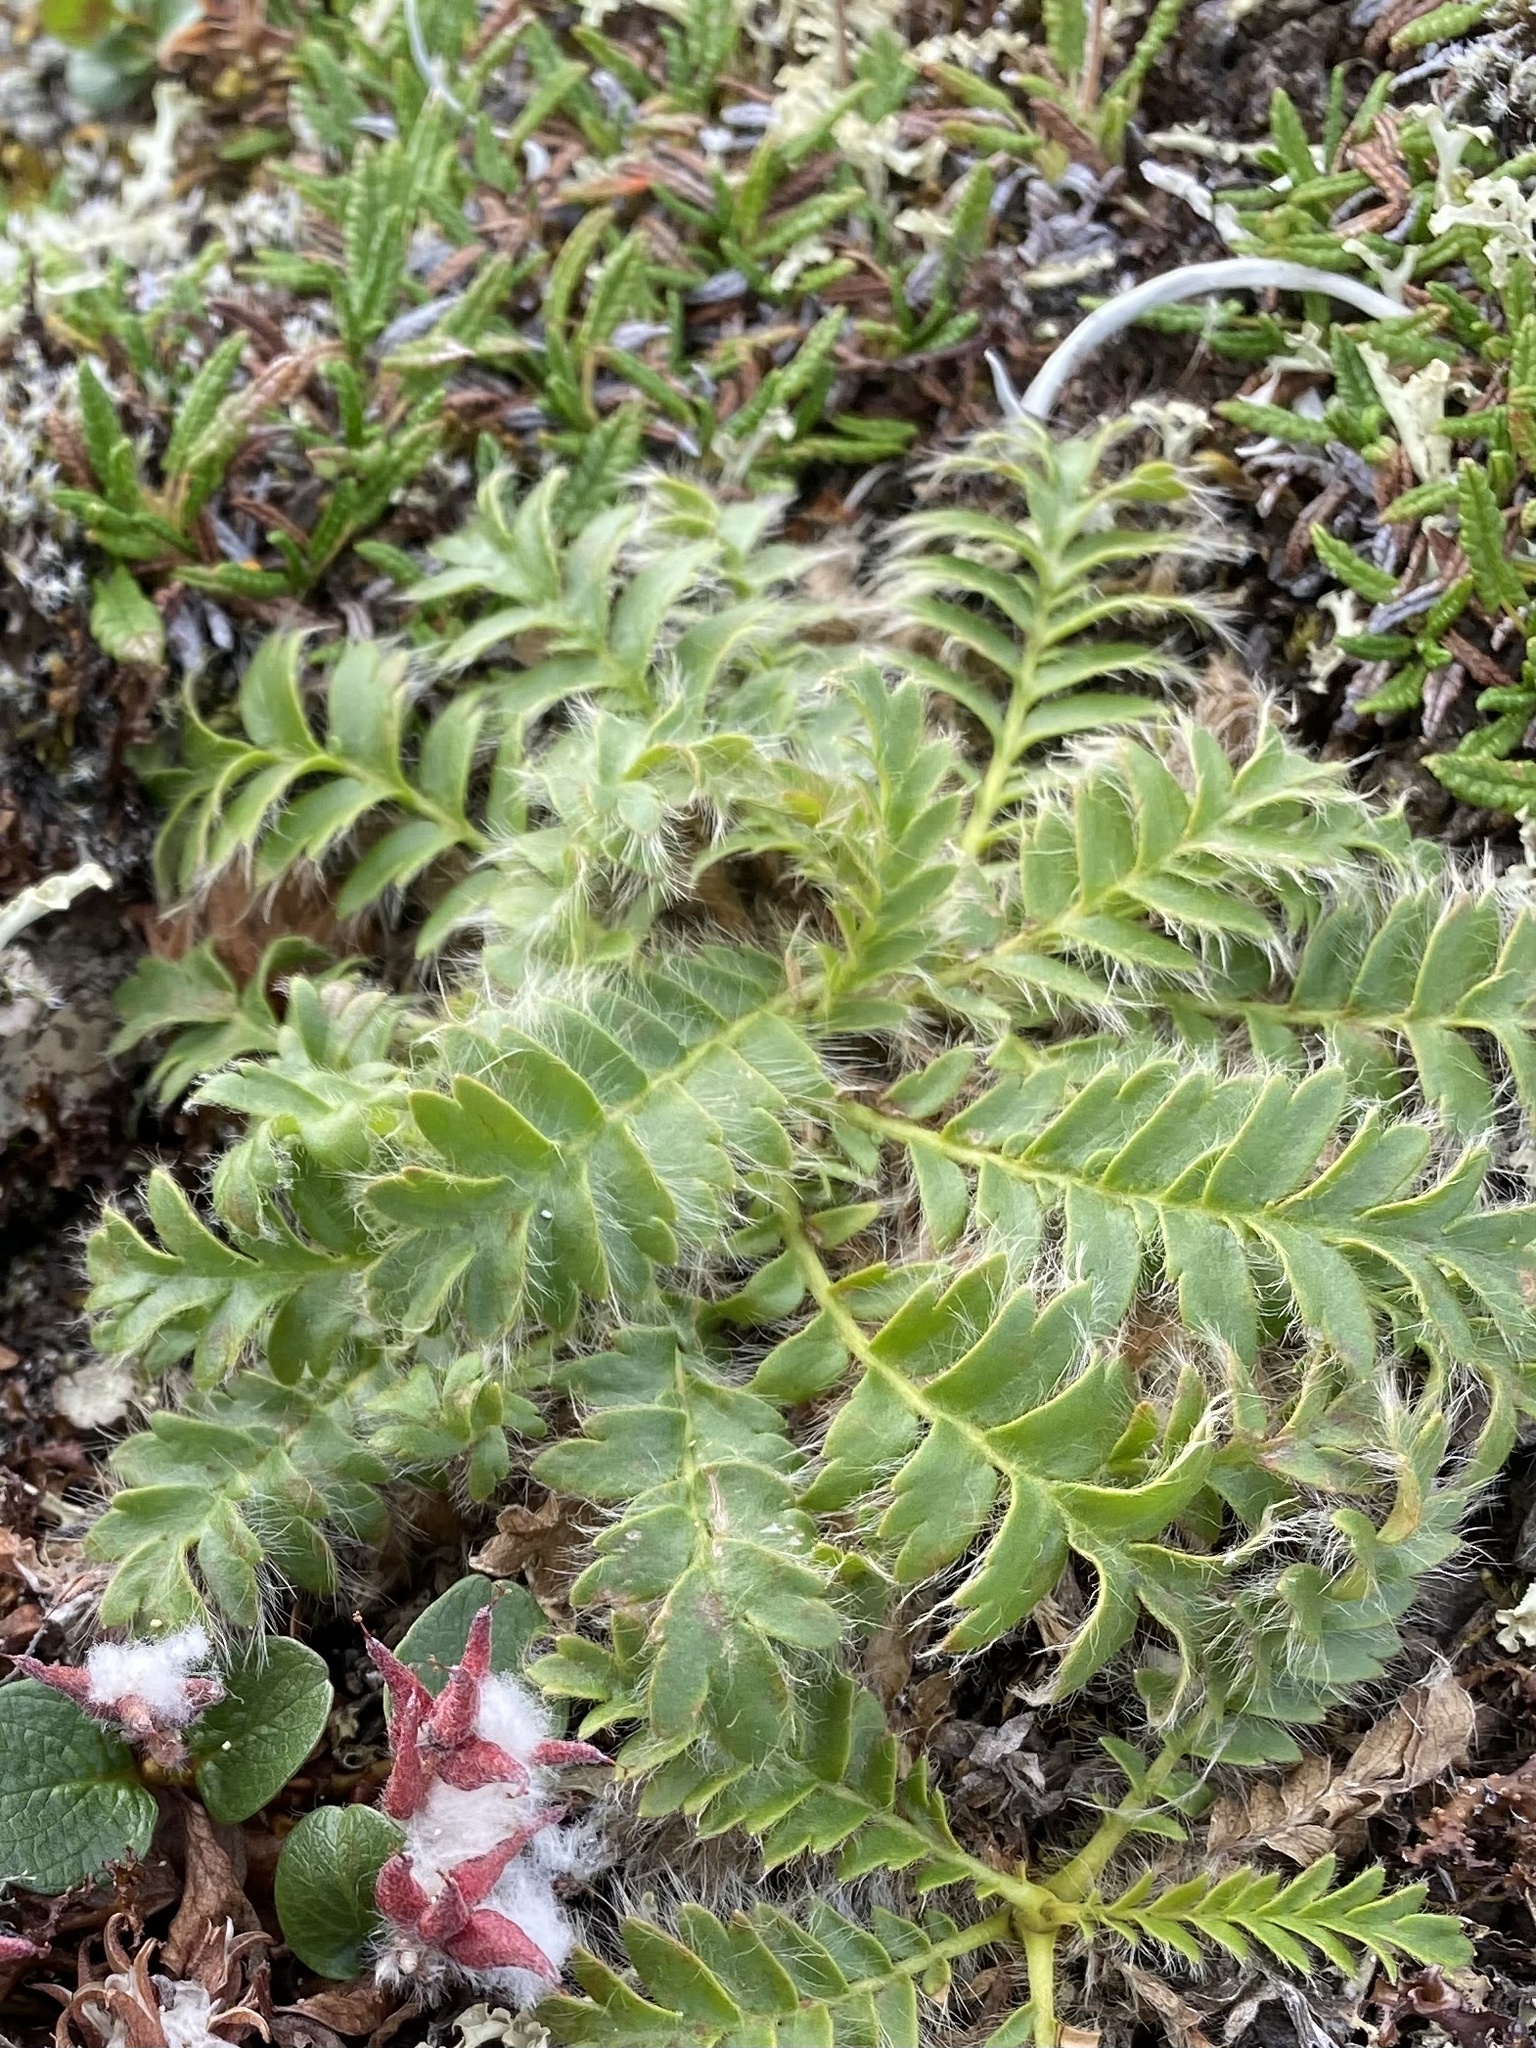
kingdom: Plantae
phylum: Tracheophyta
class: Magnoliopsida
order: Rosales
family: Rosaceae
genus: Geum
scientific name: Geum glaciale
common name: Glacier avens
